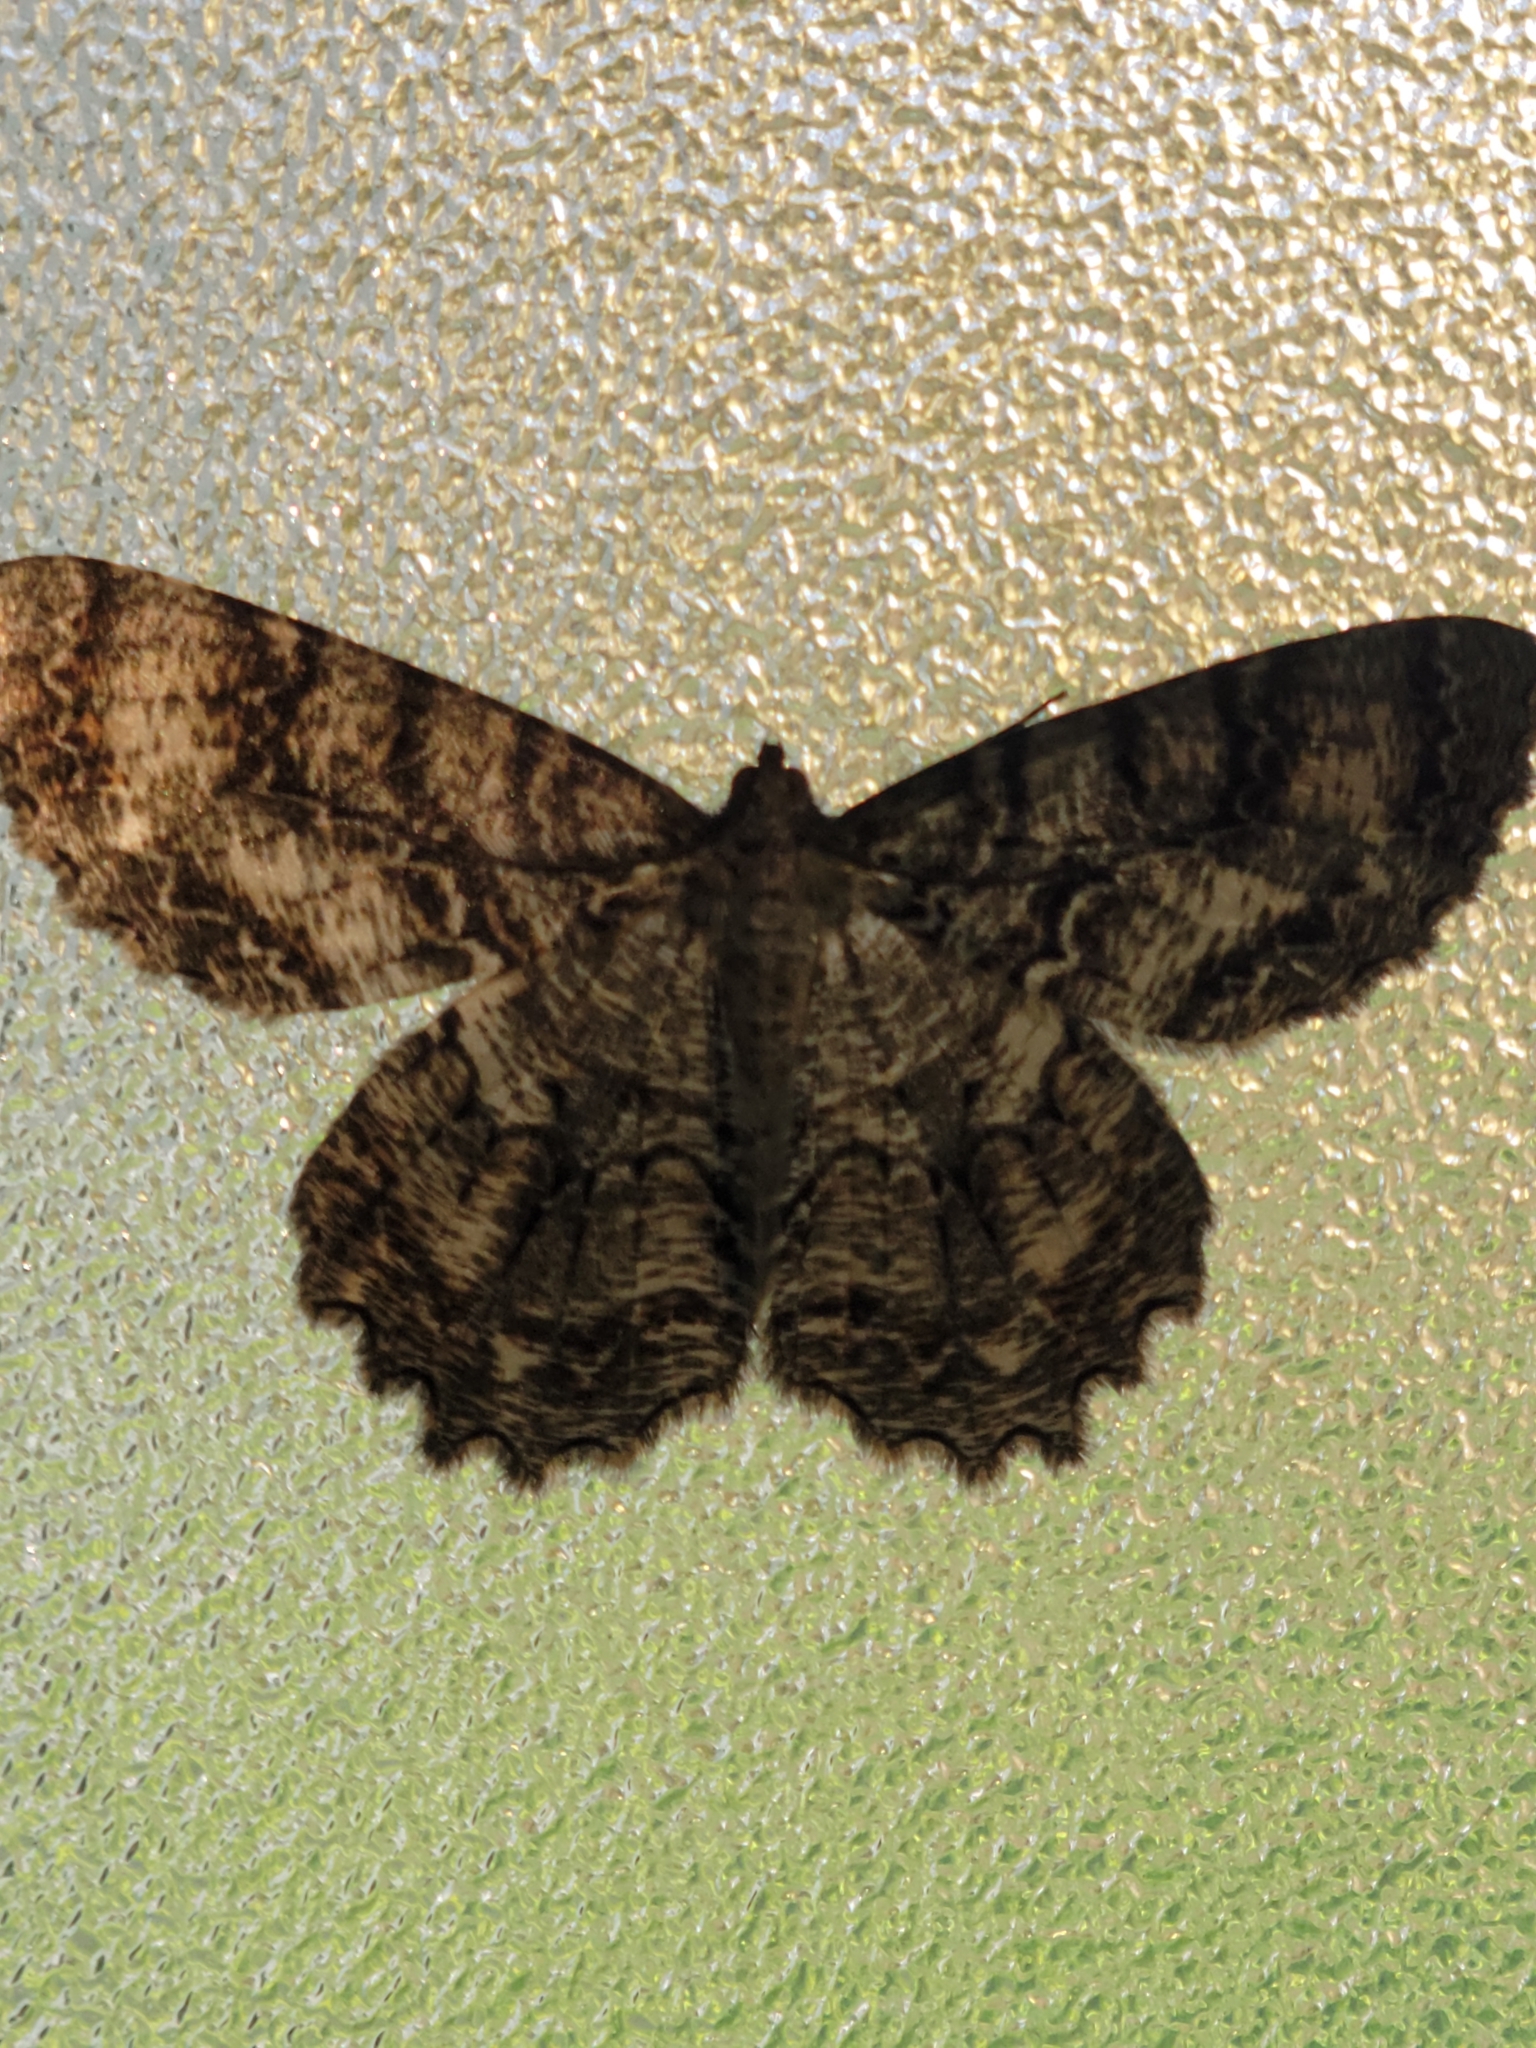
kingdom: Animalia
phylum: Arthropoda
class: Insecta
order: Lepidoptera
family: Geometridae
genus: Epimecis
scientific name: Epimecis hortaria
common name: Tulip-tree beauty
